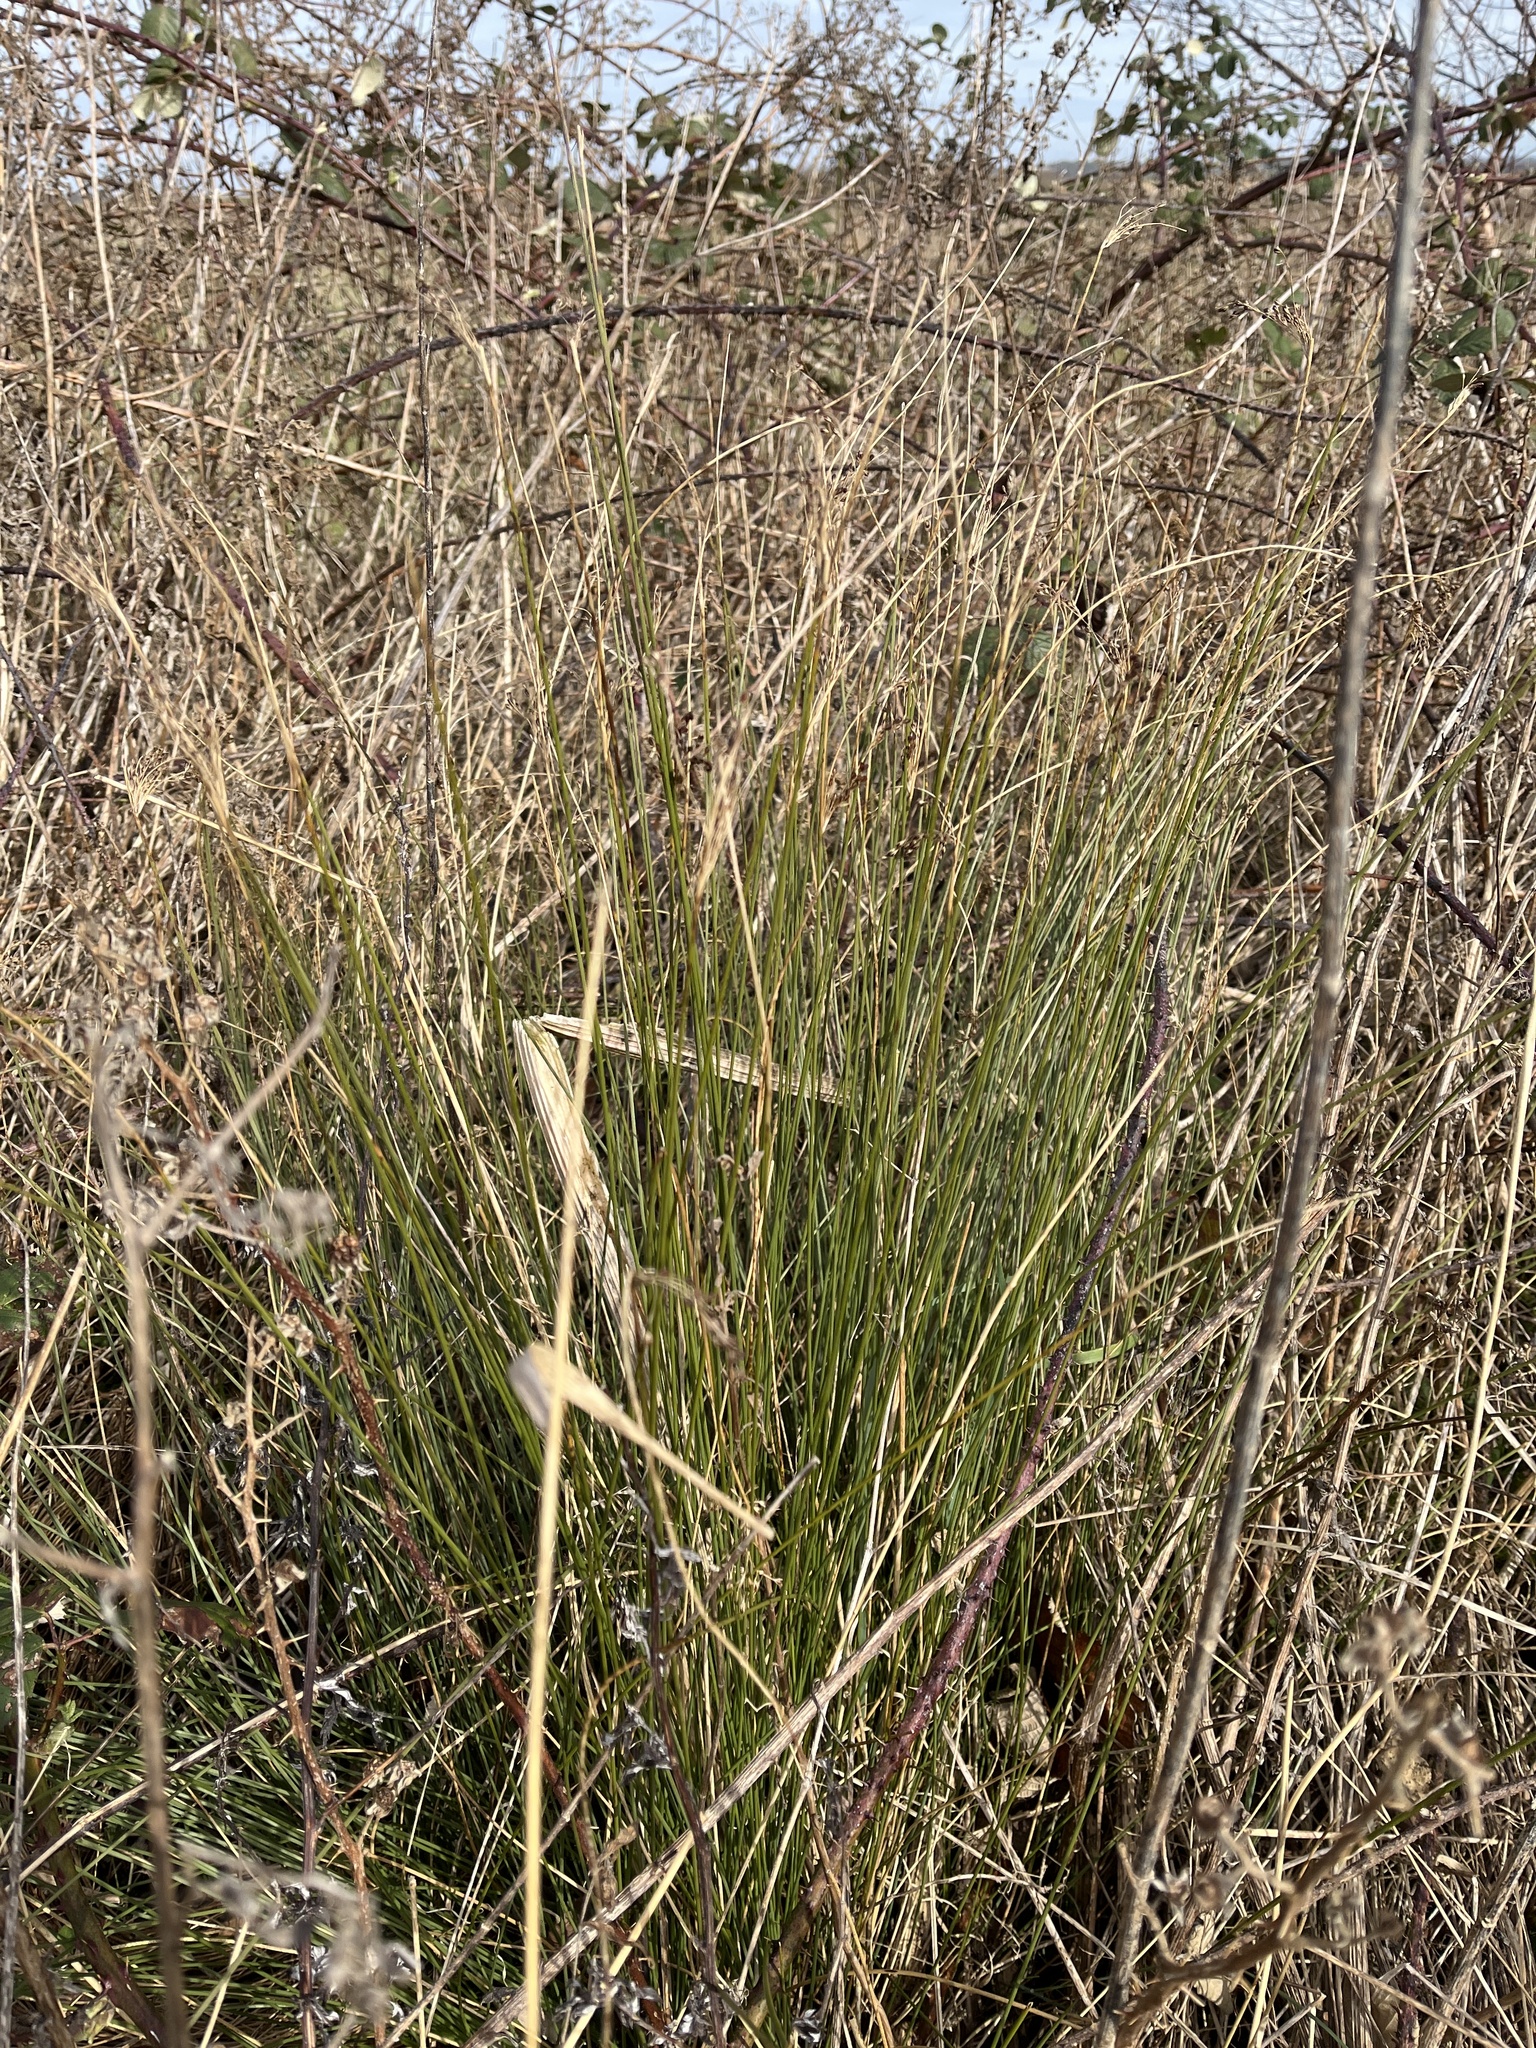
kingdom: Plantae
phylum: Tracheophyta
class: Liliopsida
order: Poales
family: Juncaceae
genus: Juncus
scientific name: Juncus inflexus
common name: Hard rush
